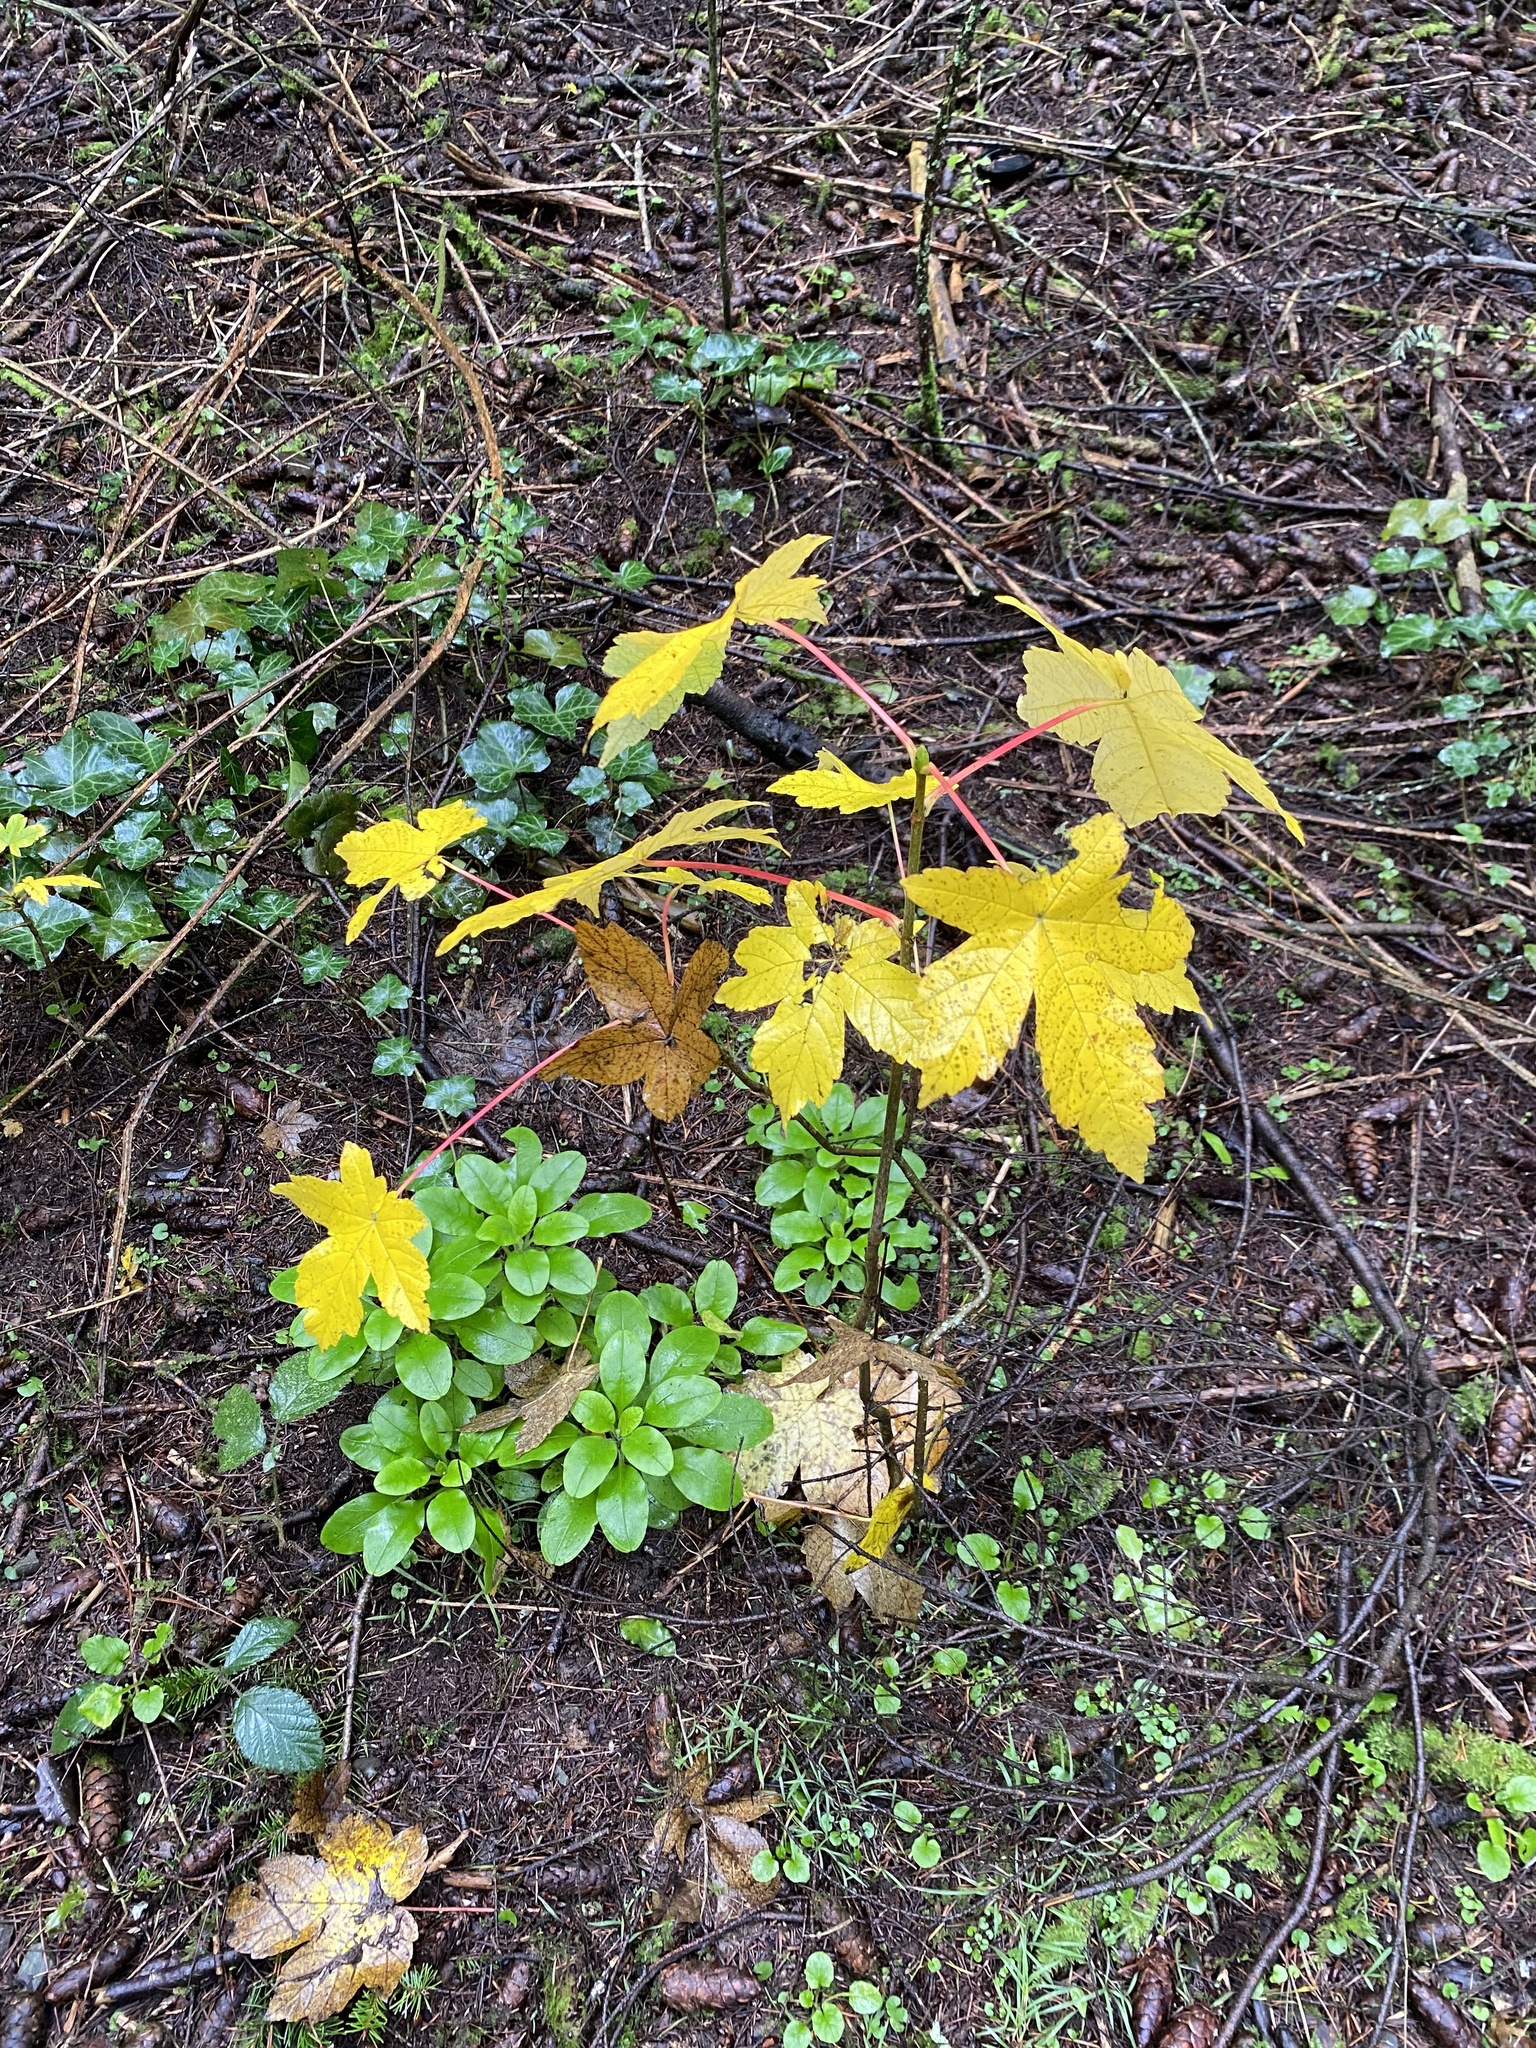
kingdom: Plantae
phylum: Tracheophyta
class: Magnoliopsida
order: Sapindales
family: Sapindaceae
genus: Acer
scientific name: Acer pseudoplatanus
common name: Sycamore
